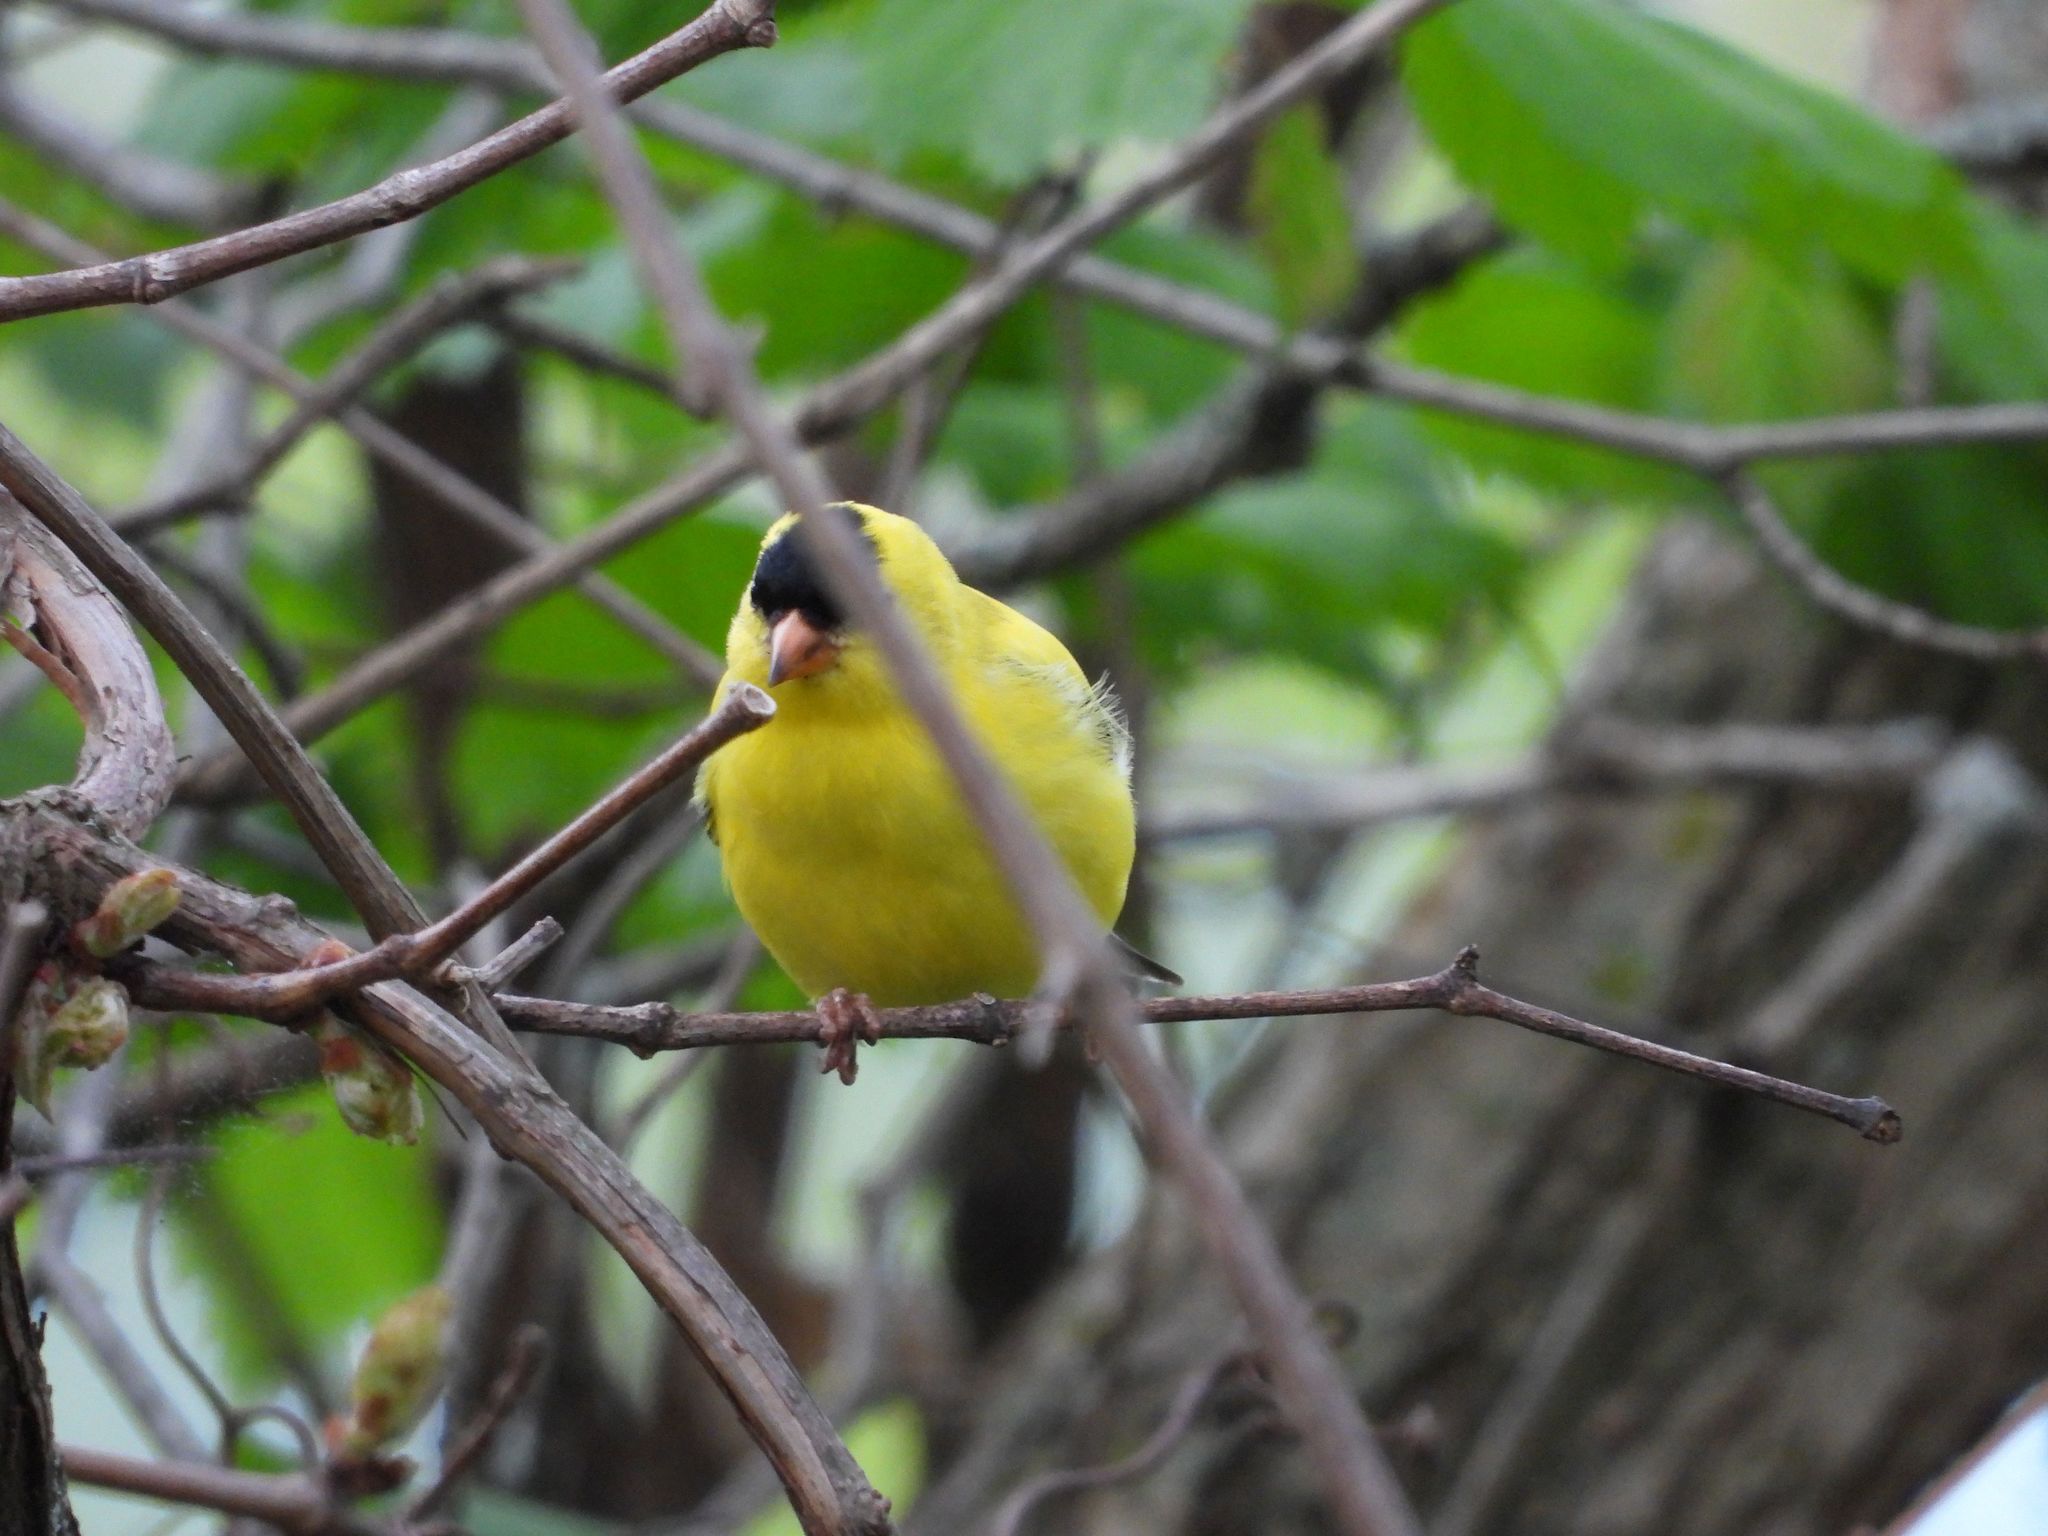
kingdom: Animalia
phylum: Chordata
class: Aves
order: Passeriformes
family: Fringillidae
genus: Spinus
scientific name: Spinus tristis
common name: American goldfinch
